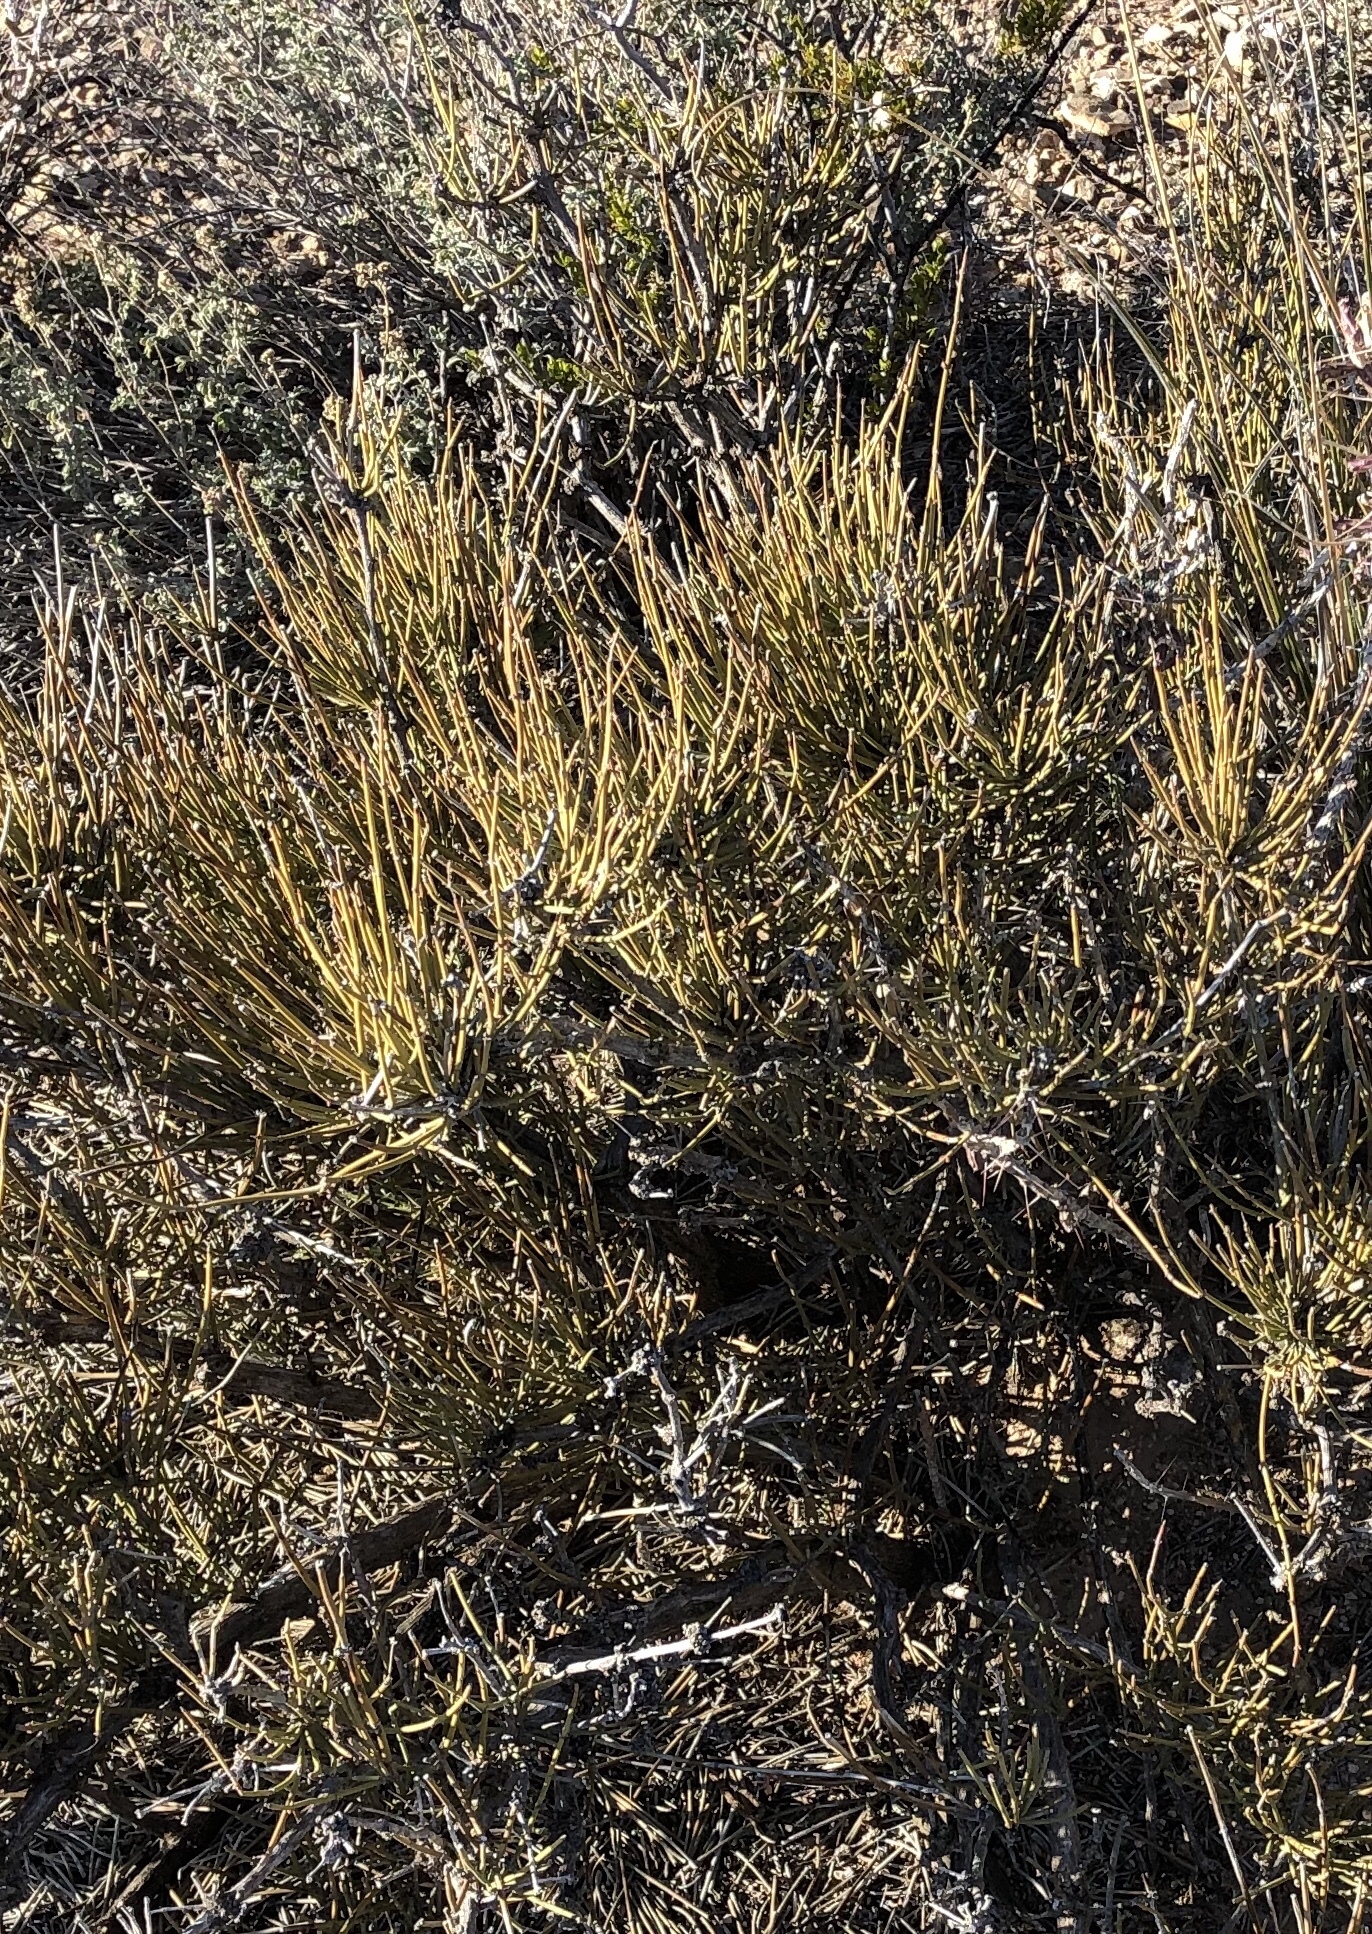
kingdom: Plantae
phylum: Tracheophyta
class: Gnetopsida
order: Ephedrales
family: Ephedraceae
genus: Ephedra
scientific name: Ephedra viridis
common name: Green ephedra
